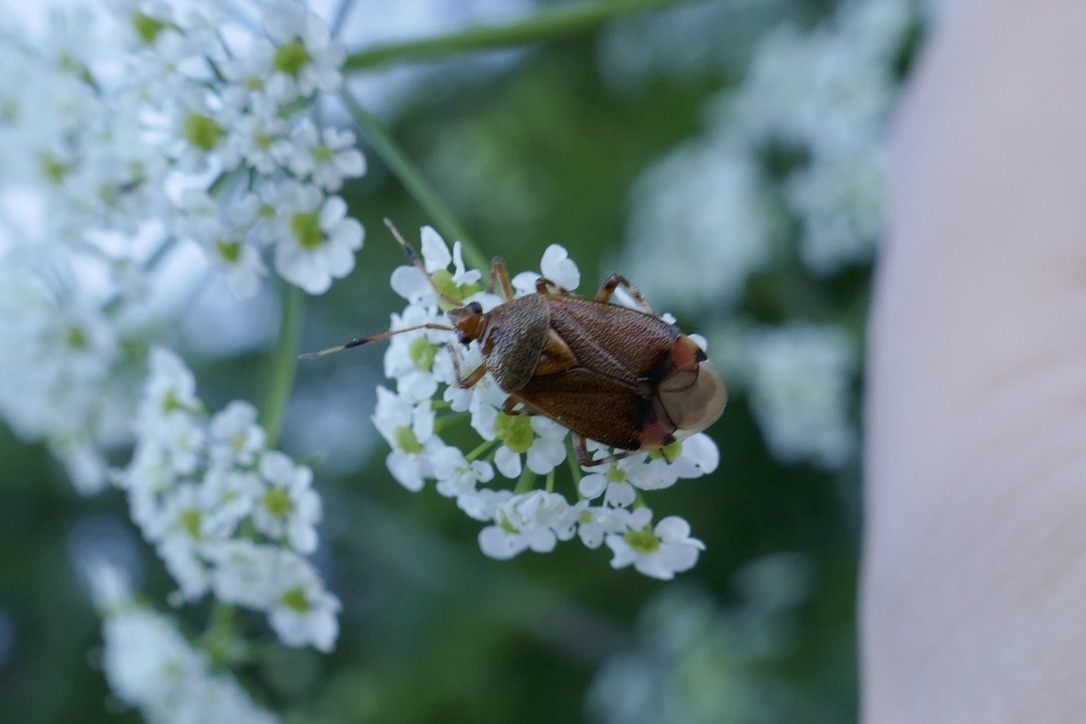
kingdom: Animalia
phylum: Arthropoda
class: Insecta
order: Hemiptera
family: Miridae
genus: Deraeocoris
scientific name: Deraeocoris olivaceus
